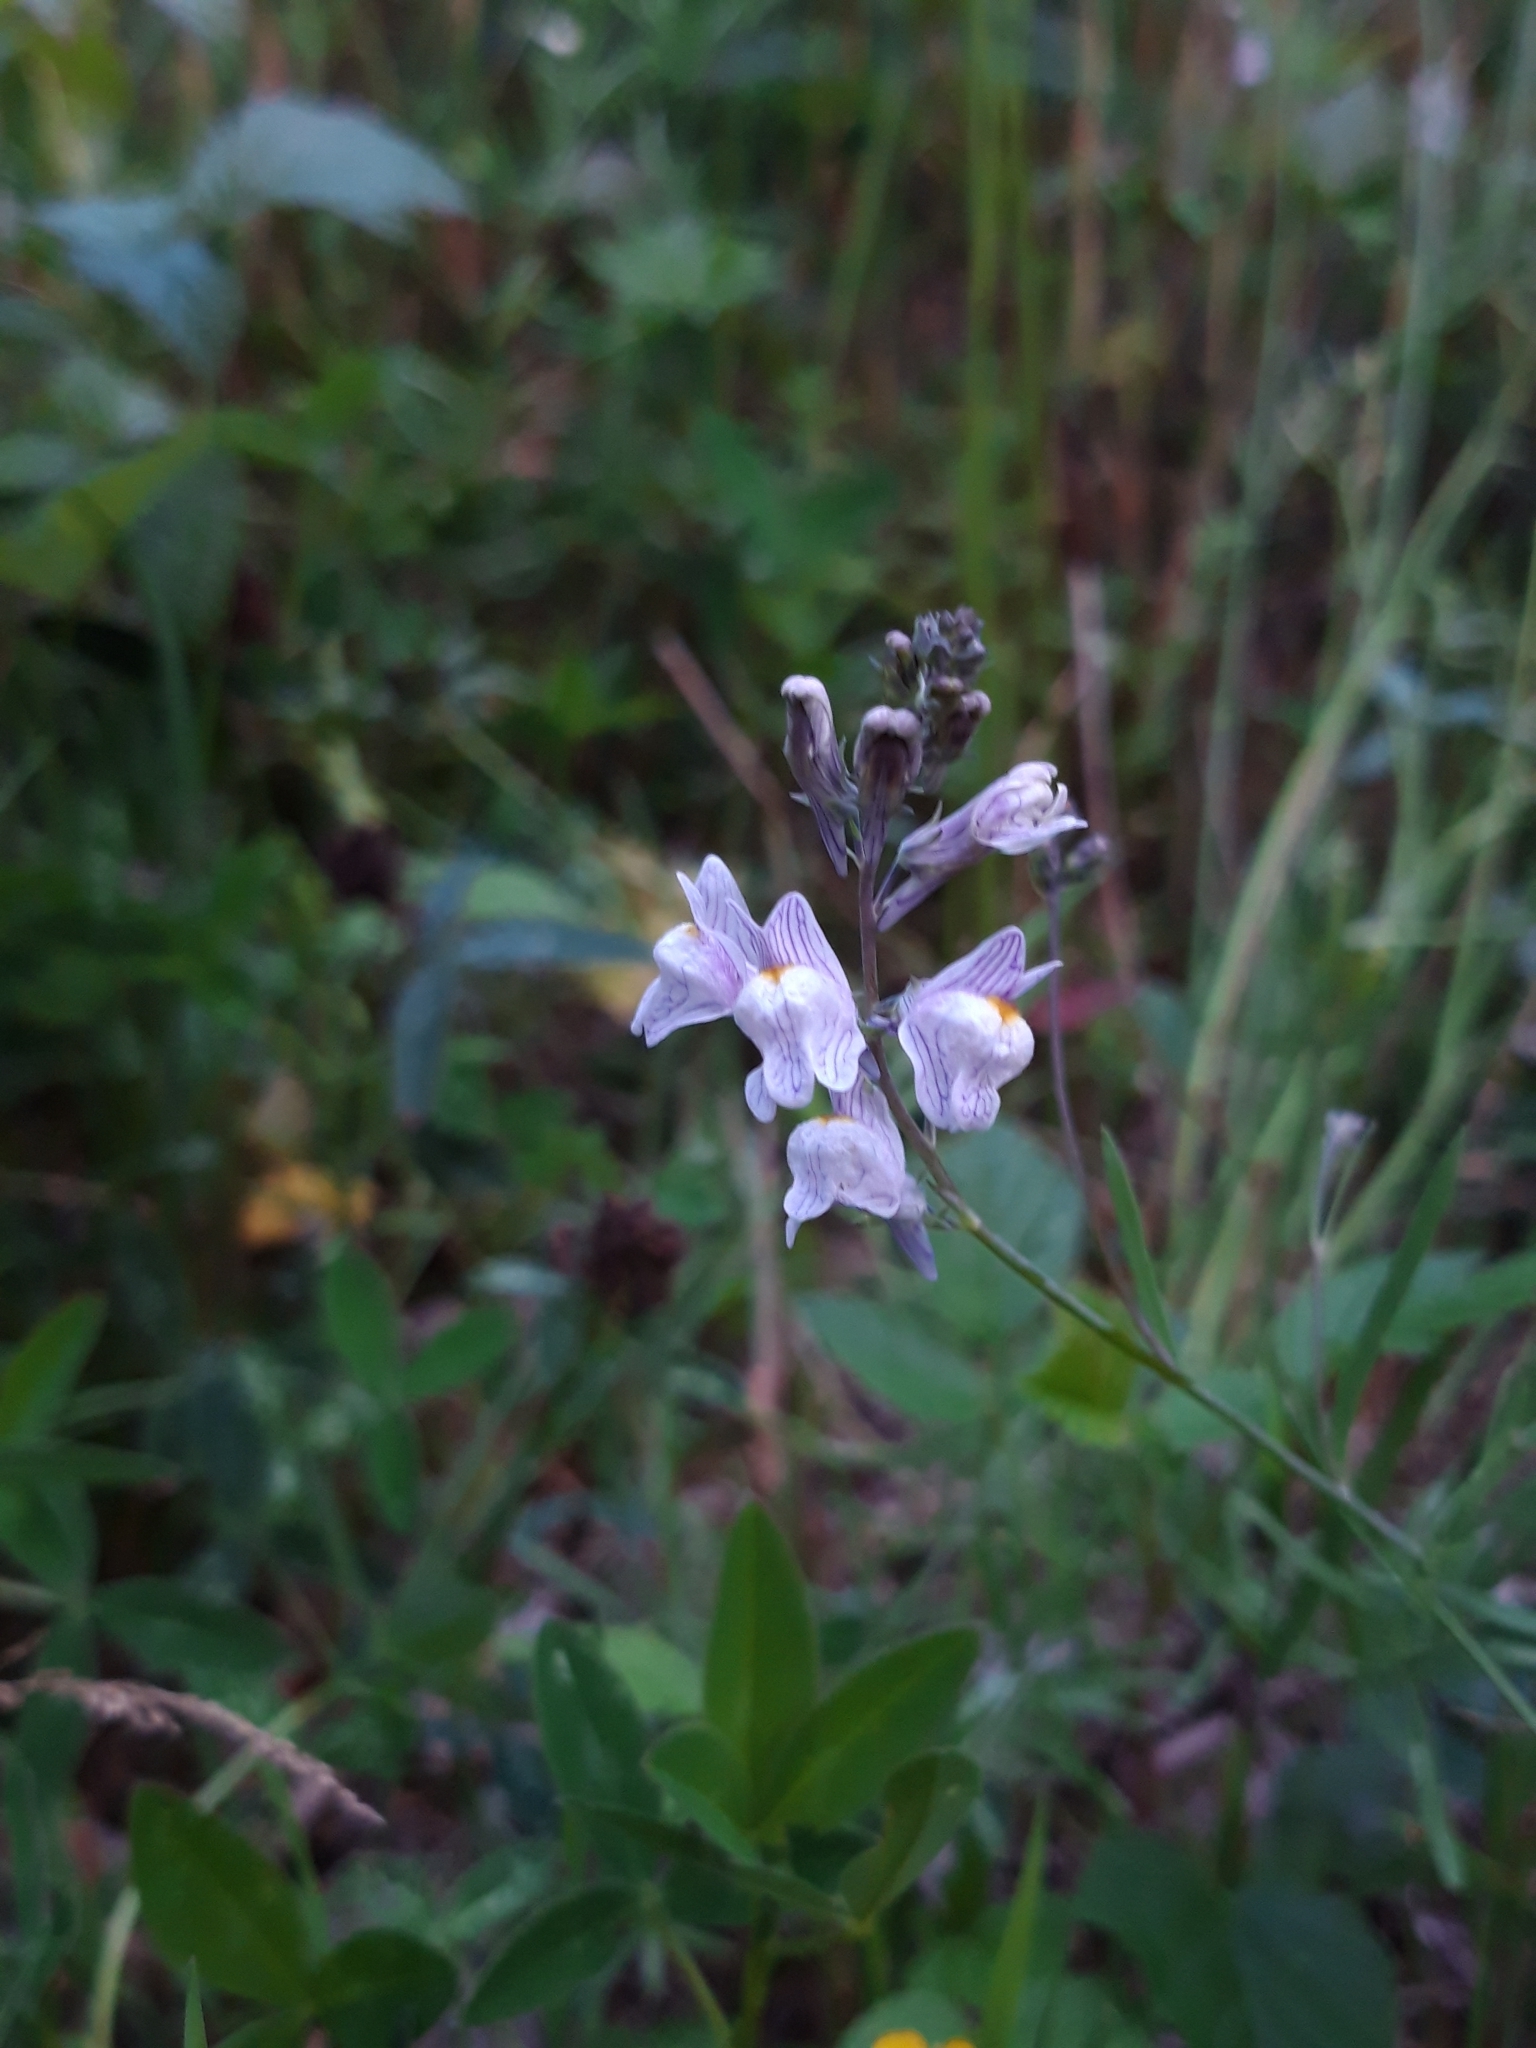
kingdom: Plantae
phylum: Tracheophyta
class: Magnoliopsida
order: Lamiales
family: Plantaginaceae
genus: Linaria
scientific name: Linaria repens
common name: Pale toadflax
